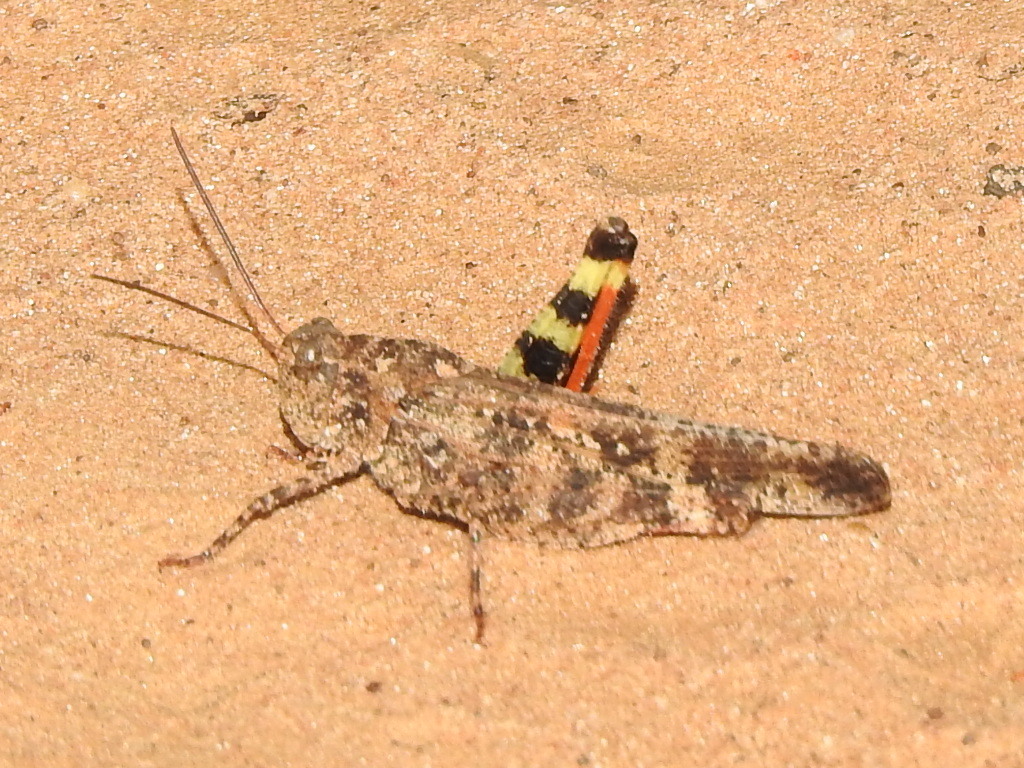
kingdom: Animalia
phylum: Arthropoda
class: Insecta
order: Orthoptera
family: Acrididae
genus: Spharagemon
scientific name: Spharagemon cristatum
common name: Ridgeback sand grasshopper
